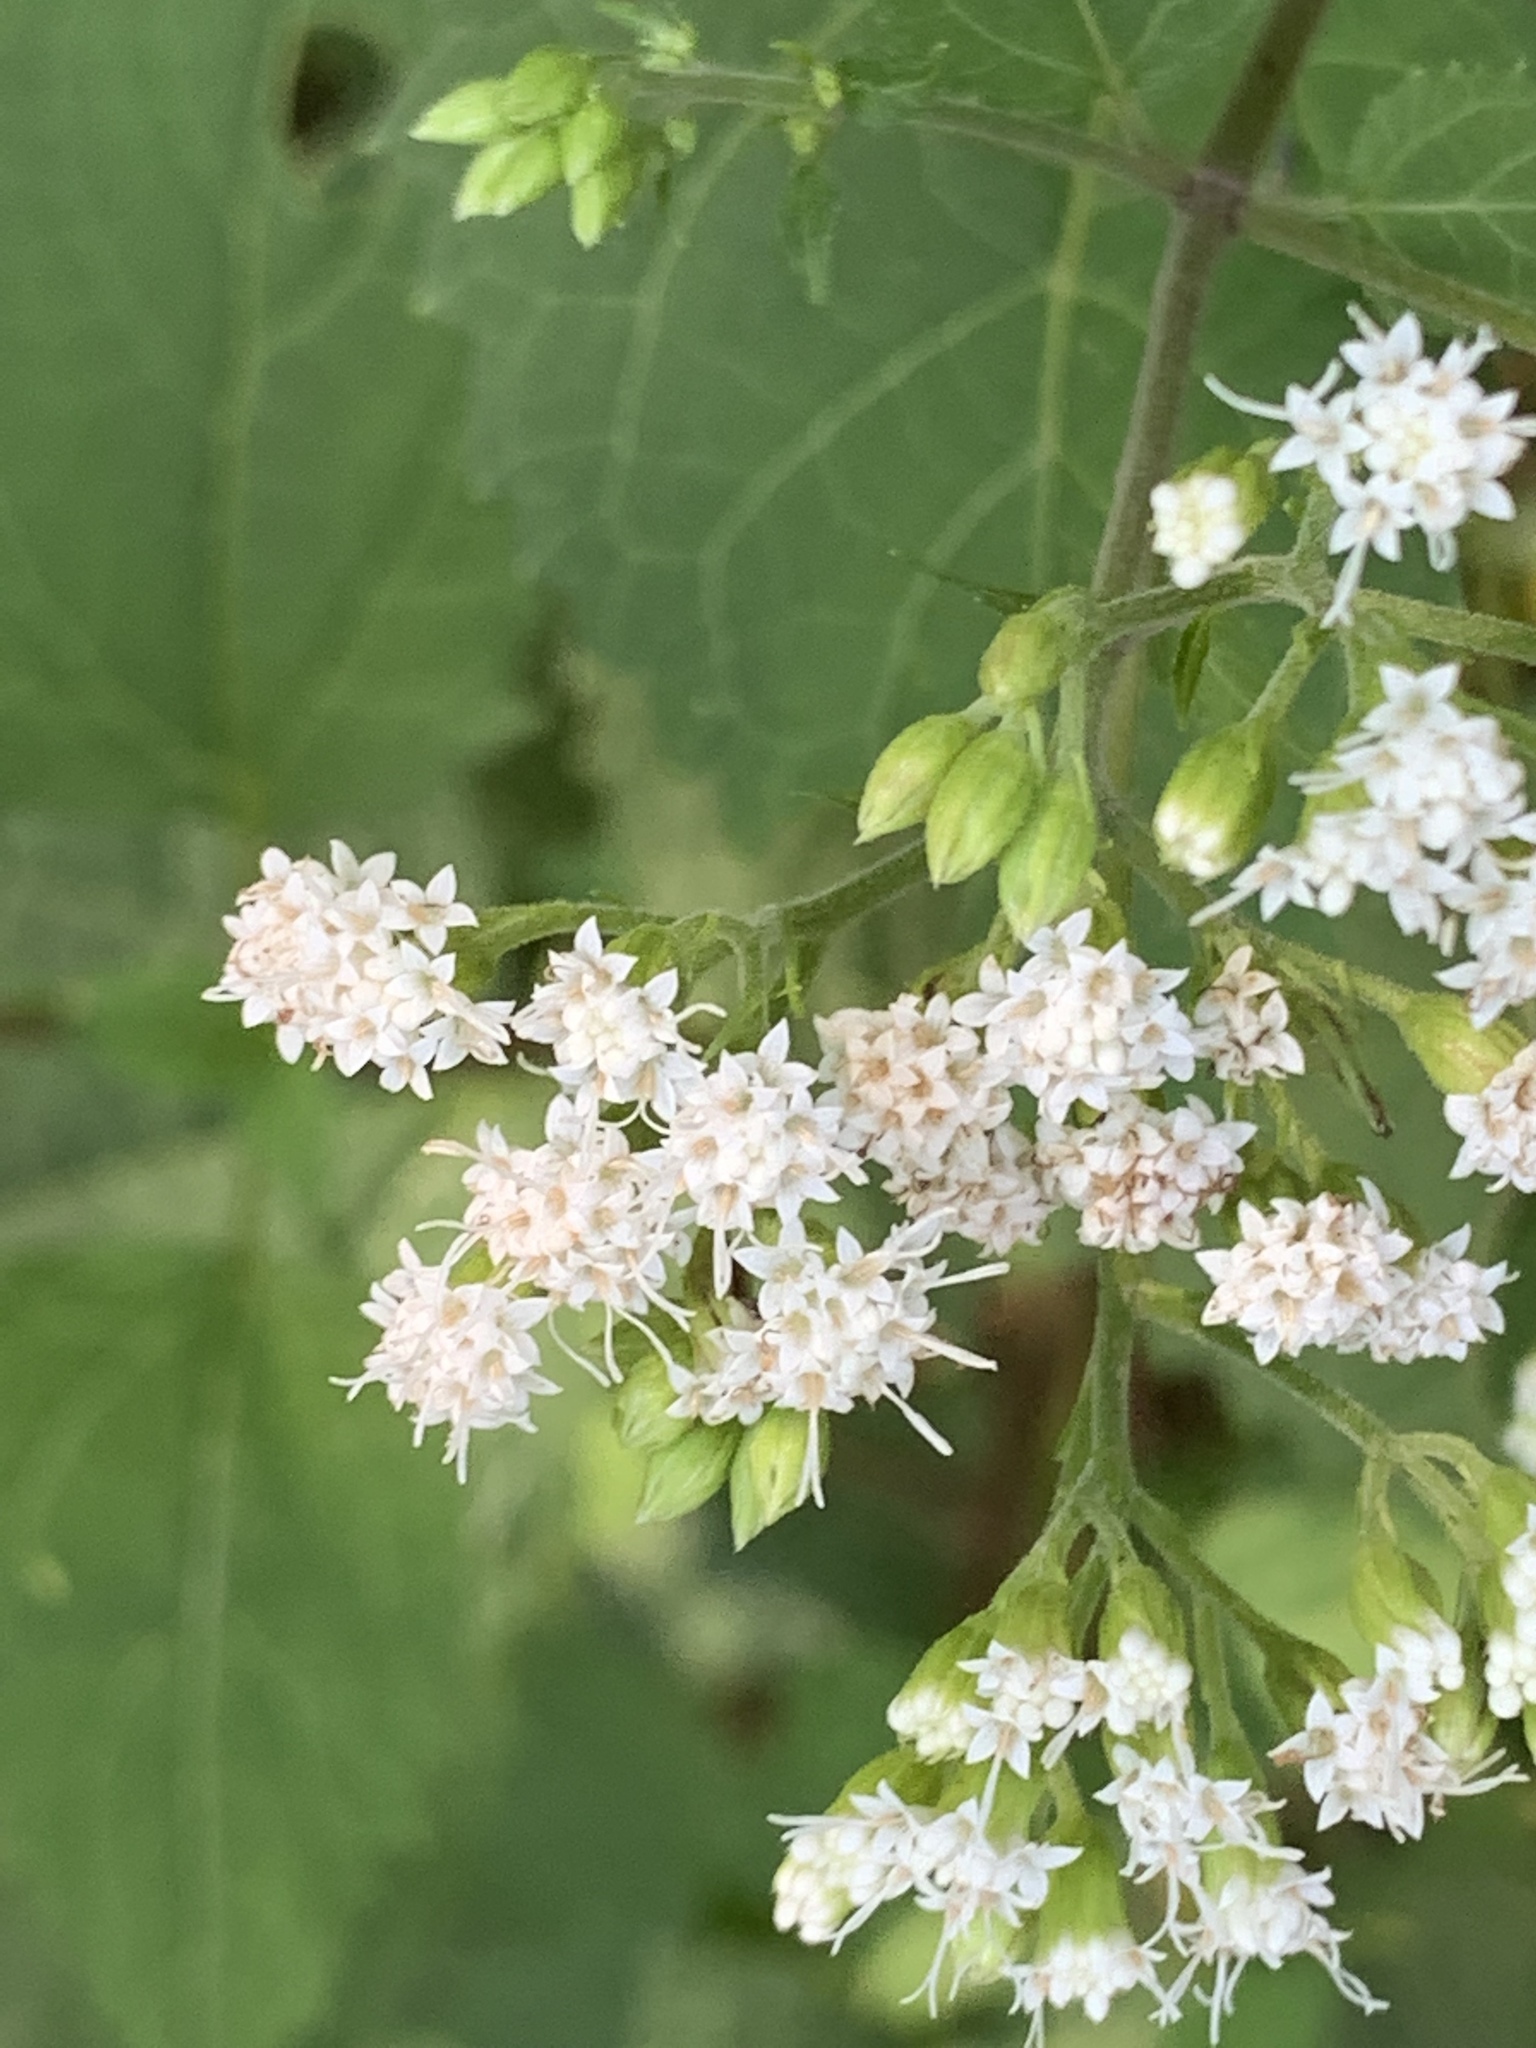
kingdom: Plantae
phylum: Tracheophyta
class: Magnoliopsida
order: Asterales
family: Asteraceae
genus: Ageratina
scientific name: Ageratina altissima
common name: White snakeroot
